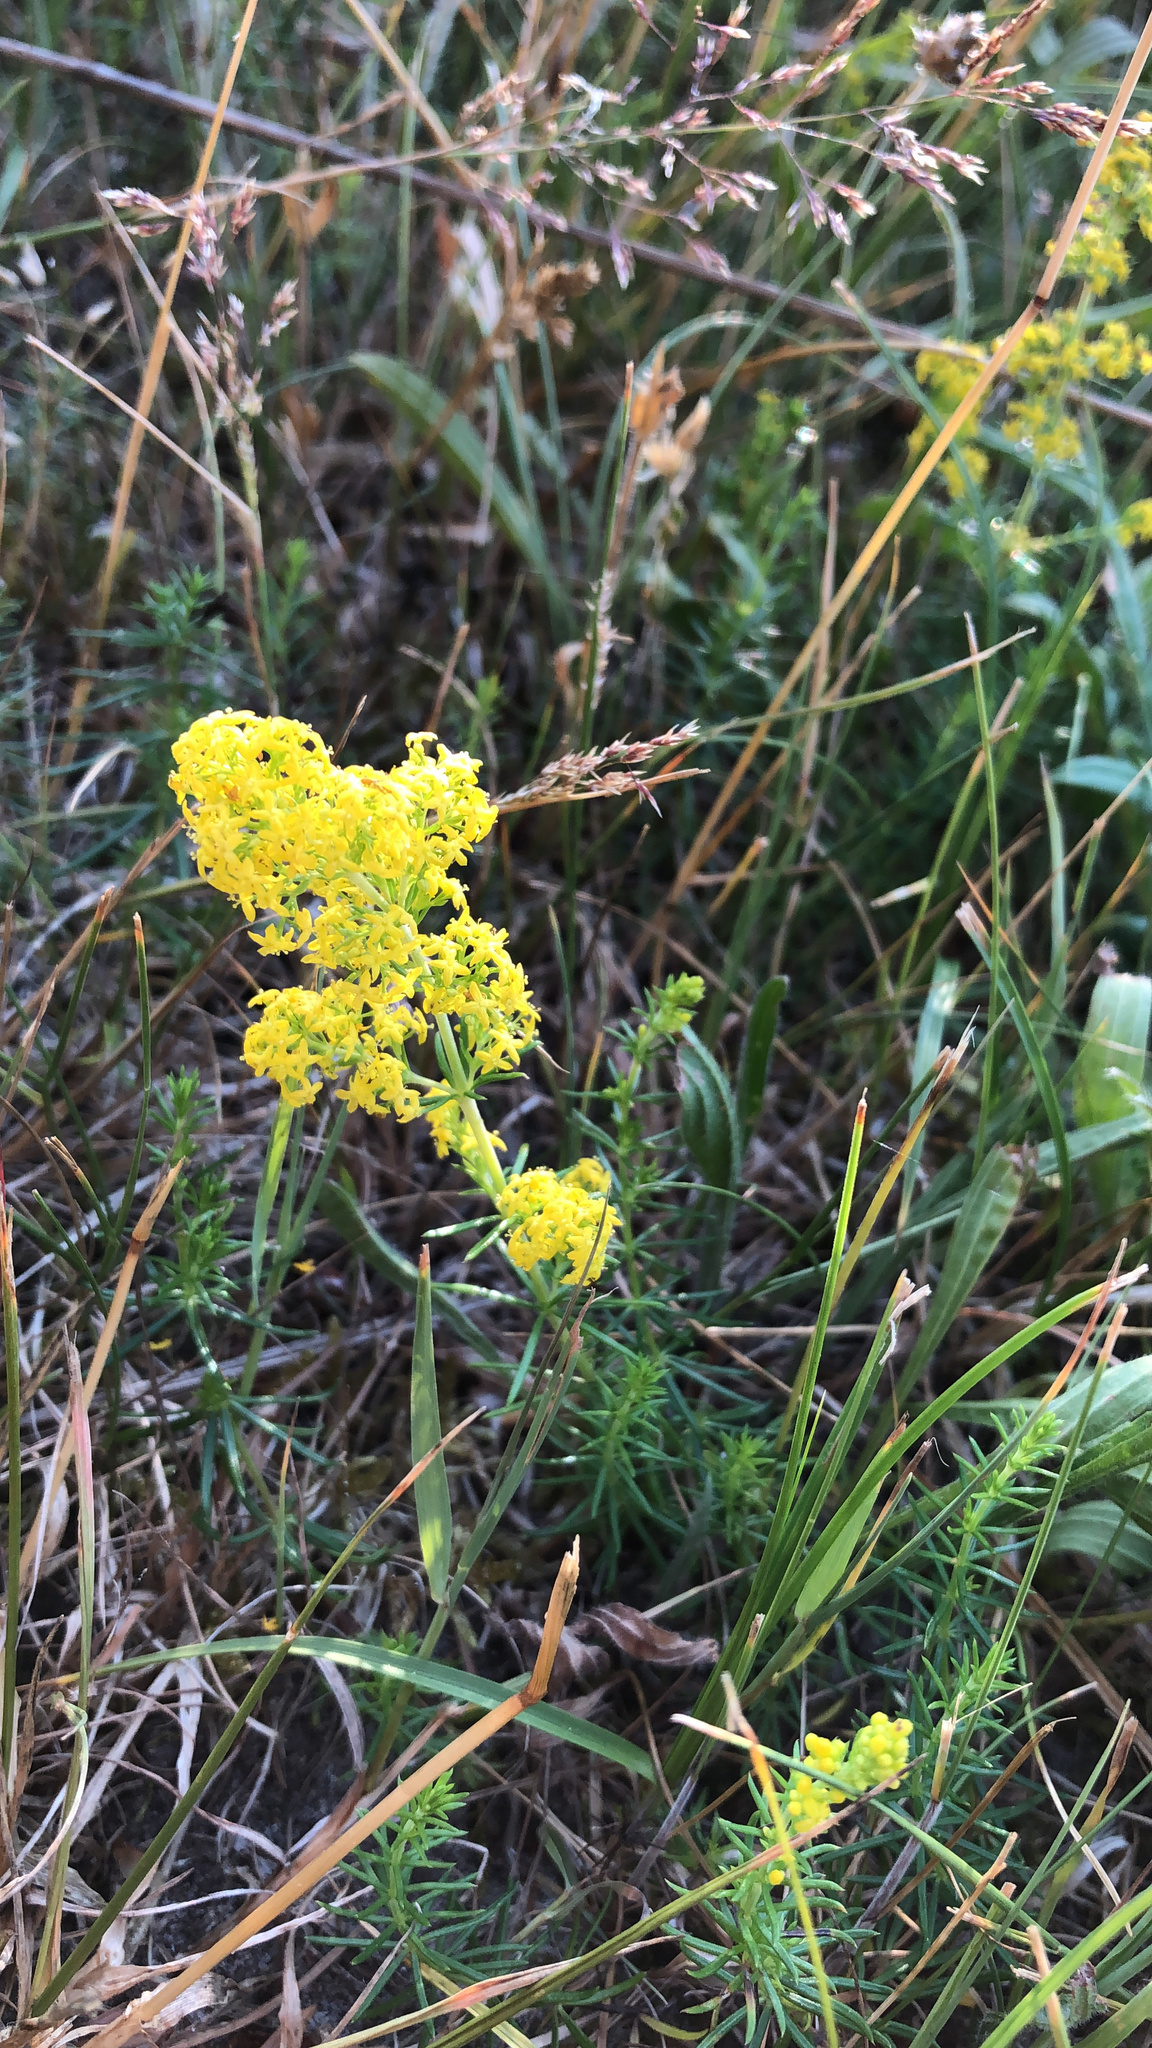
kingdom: Plantae
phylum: Tracheophyta
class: Magnoliopsida
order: Gentianales
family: Rubiaceae
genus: Galium
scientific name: Galium verum
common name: Lady's bedstraw
